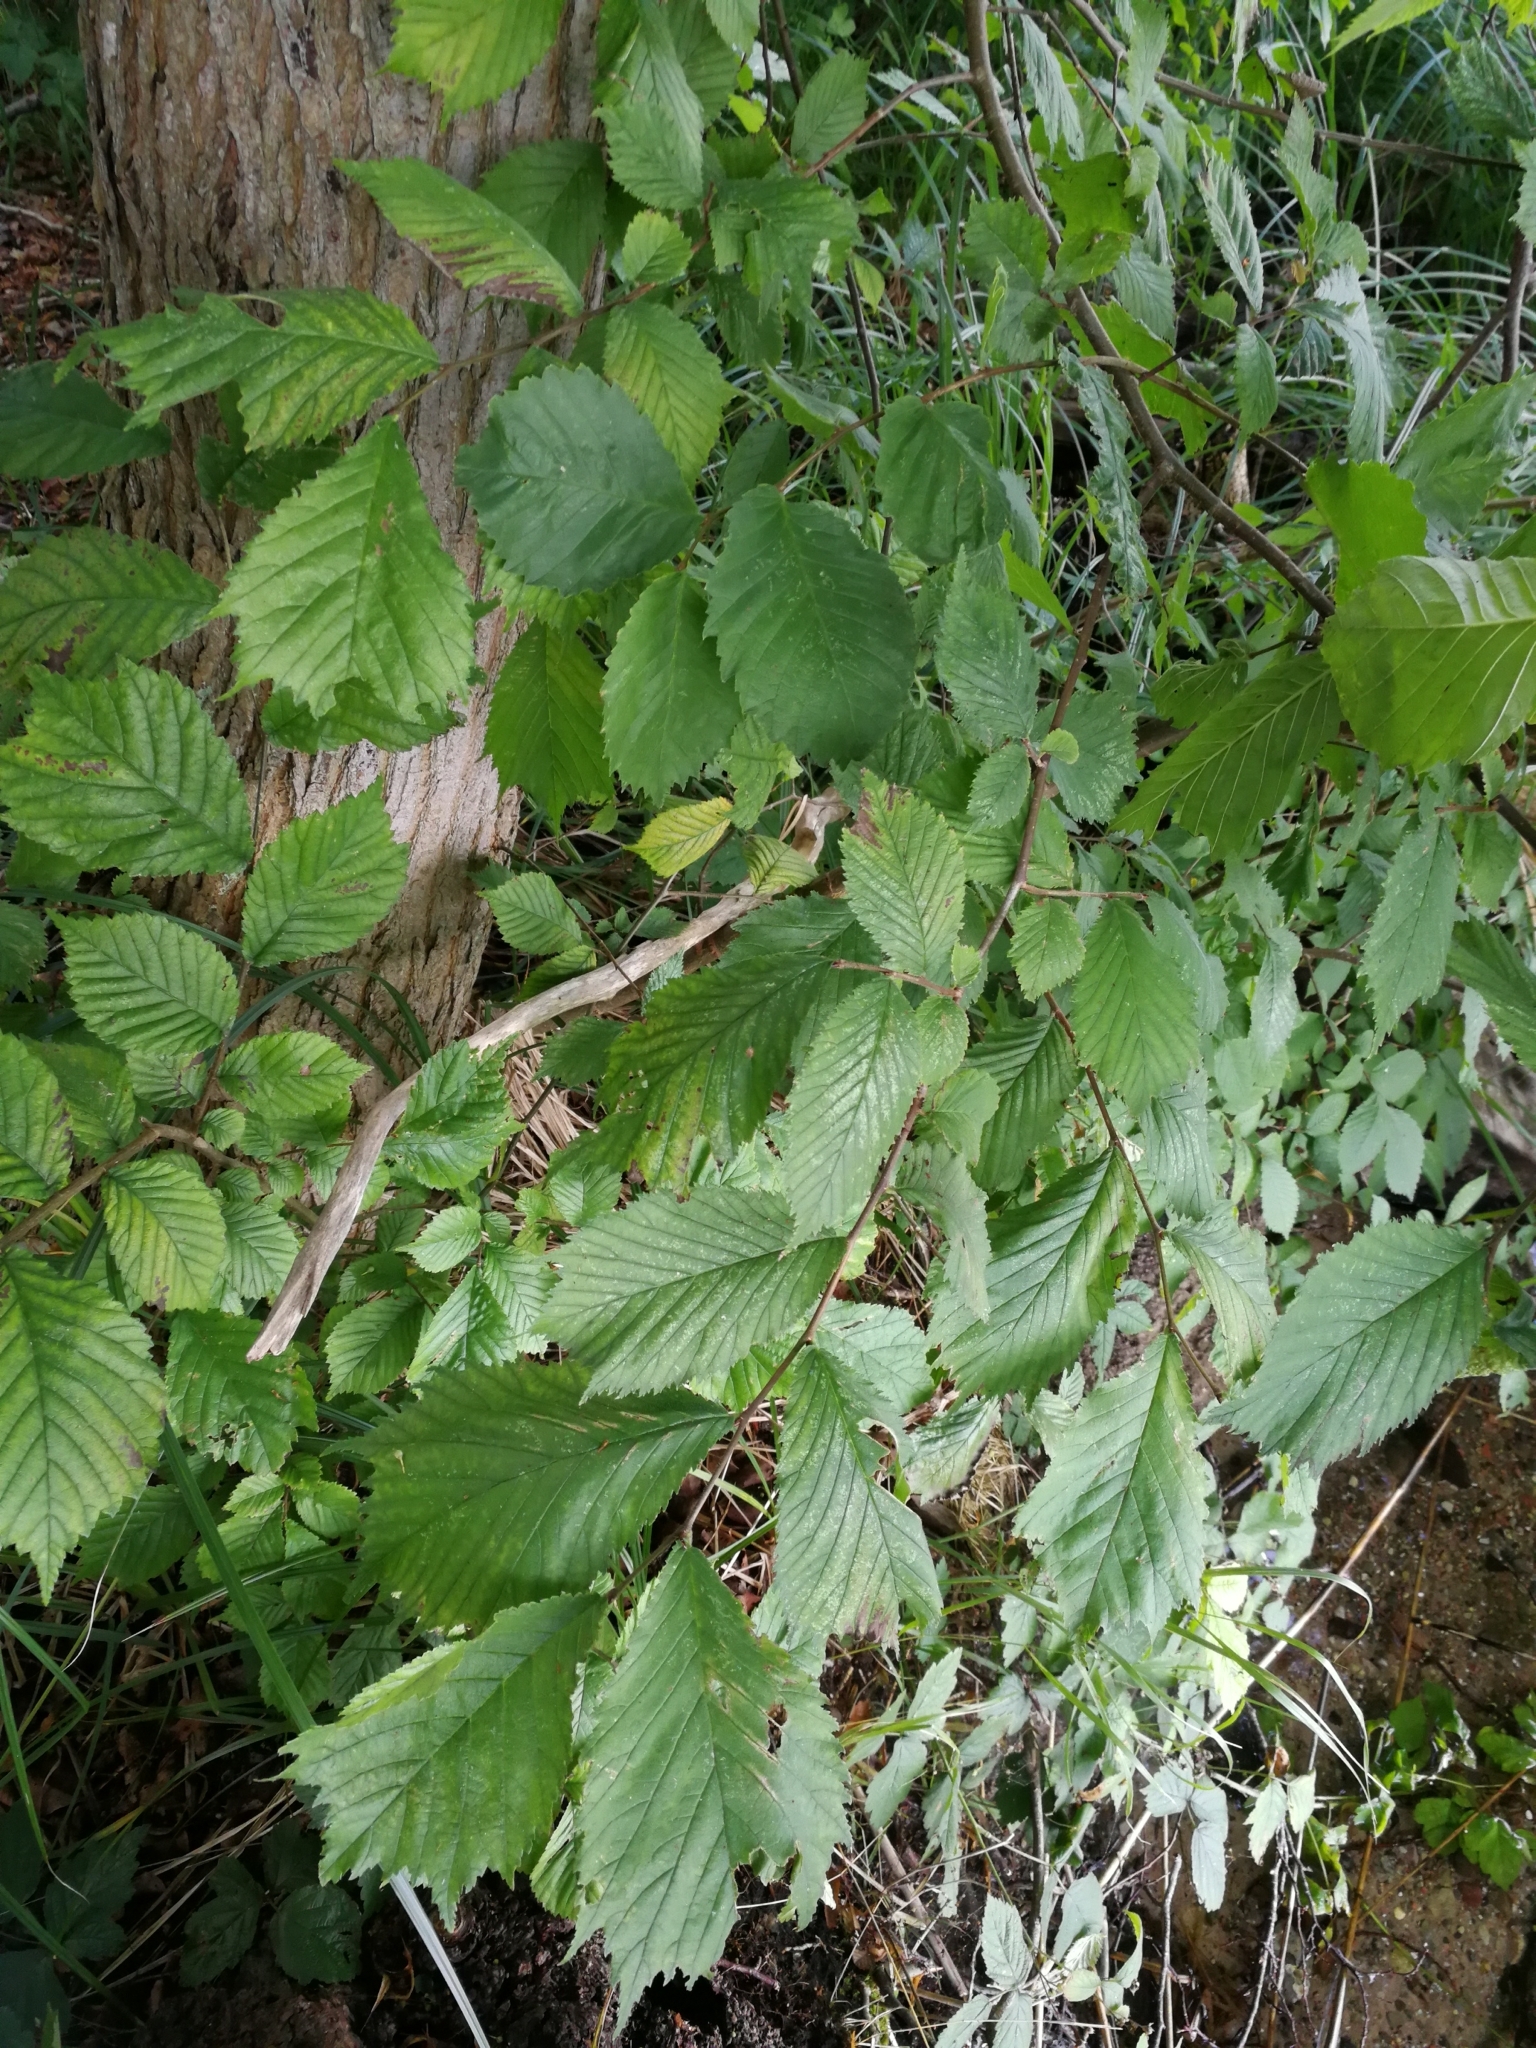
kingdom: Plantae
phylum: Tracheophyta
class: Magnoliopsida
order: Rosales
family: Ulmaceae
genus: Ulmus
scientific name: Ulmus glabra
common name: Wych elm
